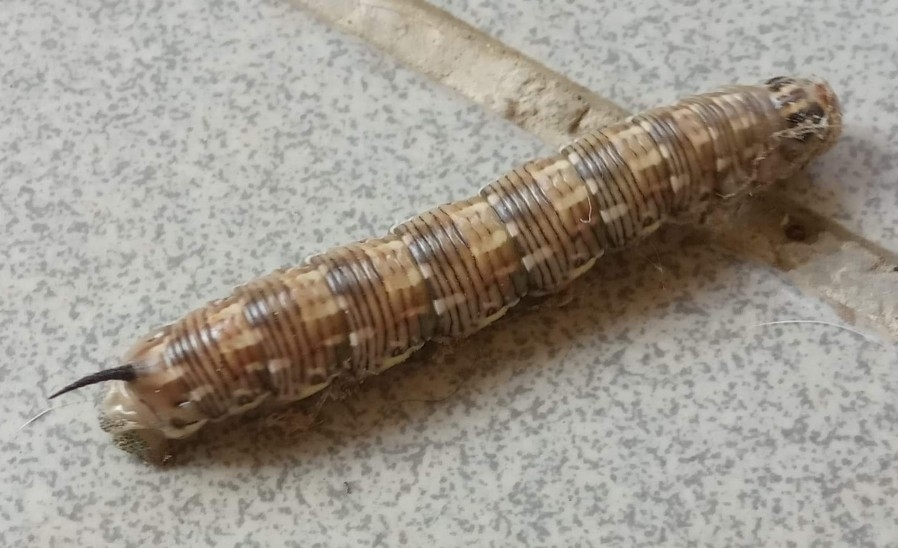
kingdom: Animalia
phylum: Arthropoda
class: Insecta
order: Lepidoptera
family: Sphingidae
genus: Sphinx
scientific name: Sphinx pinastri
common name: Pine hawk-moth
